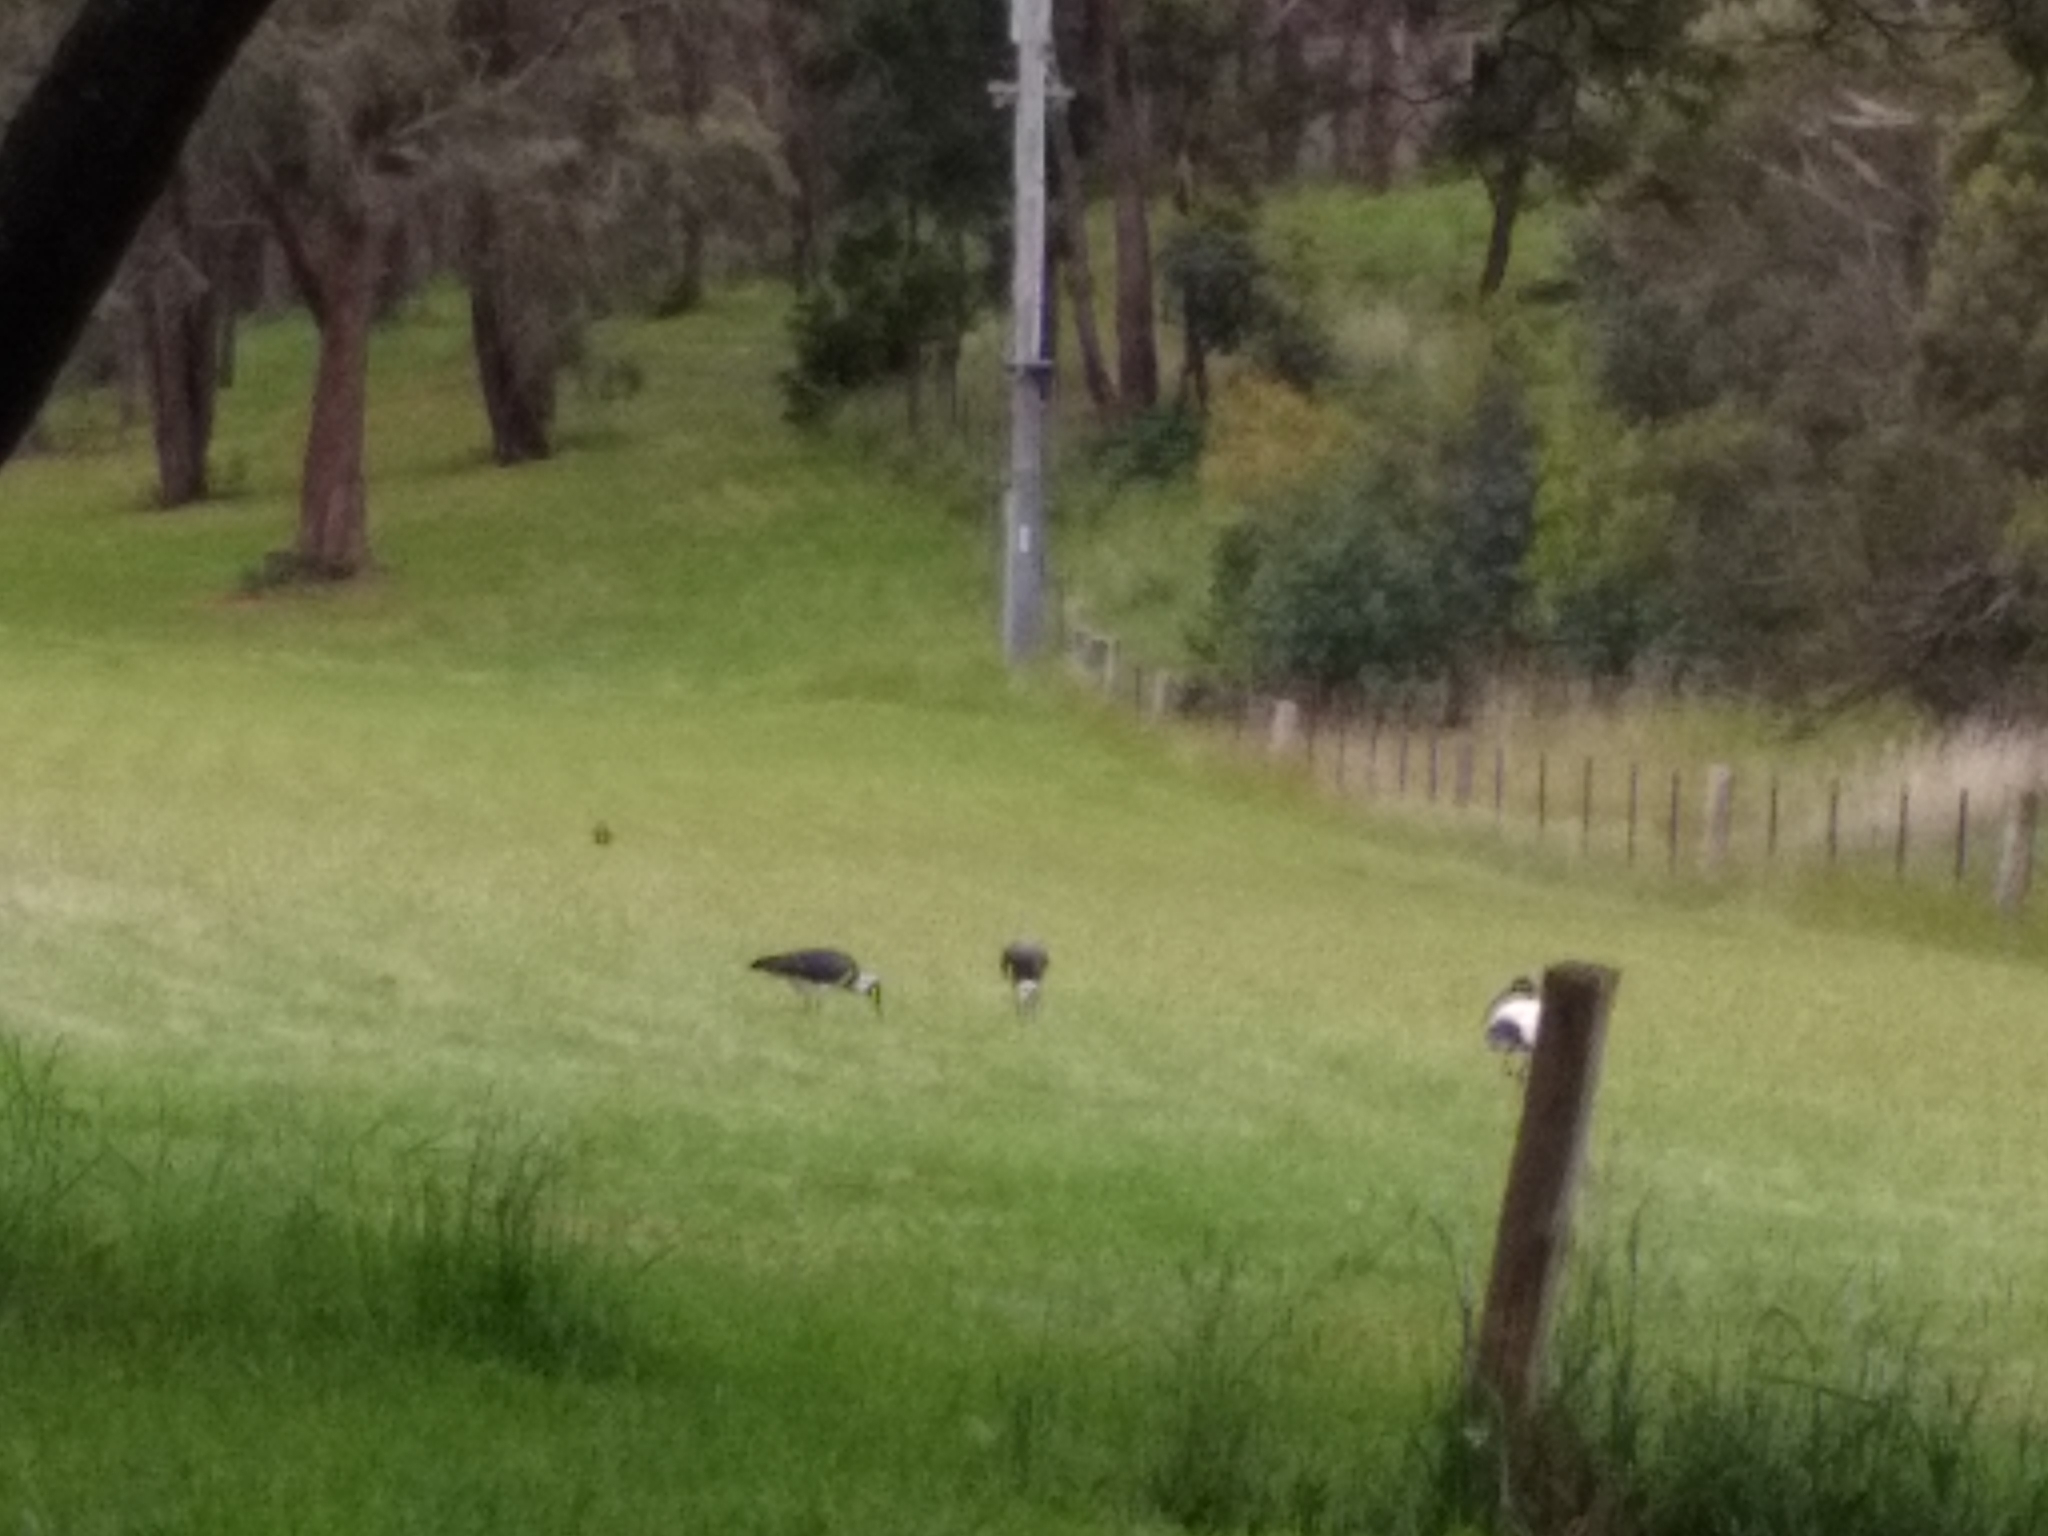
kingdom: Animalia
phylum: Chordata
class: Aves
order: Pelecaniformes
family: Threskiornithidae
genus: Threskiornis
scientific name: Threskiornis molucca
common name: Australian white ibis
